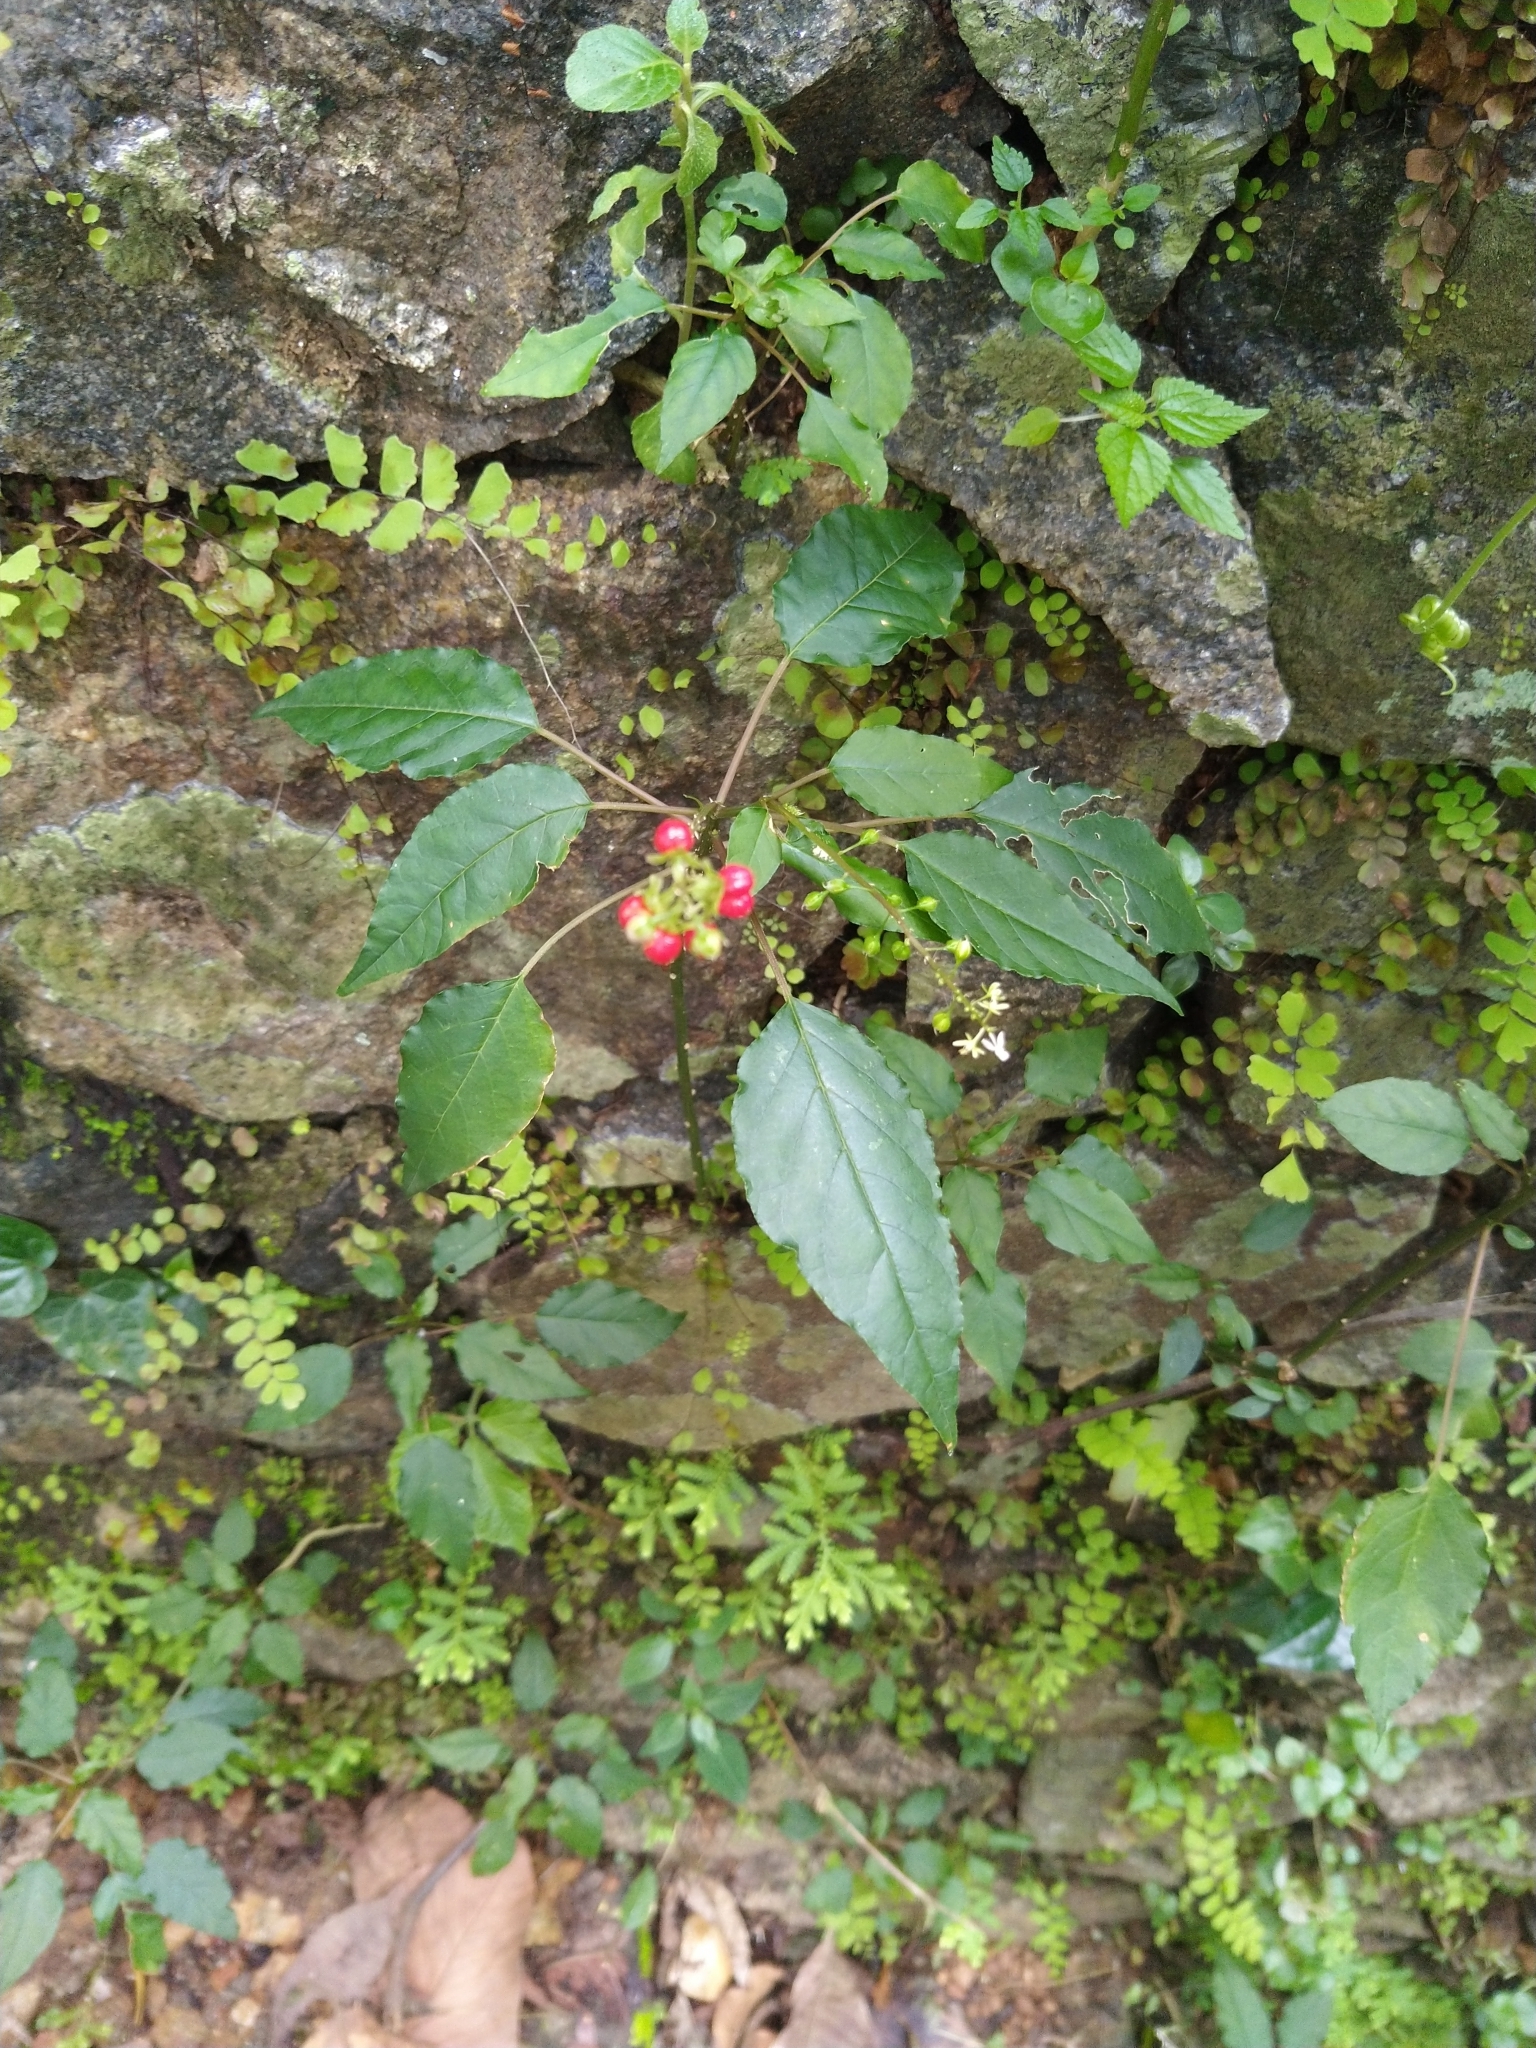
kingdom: Plantae
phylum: Tracheophyta
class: Magnoliopsida
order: Caryophyllales
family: Phytolaccaceae
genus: Rivina
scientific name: Rivina humilis
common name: Rougeplant
